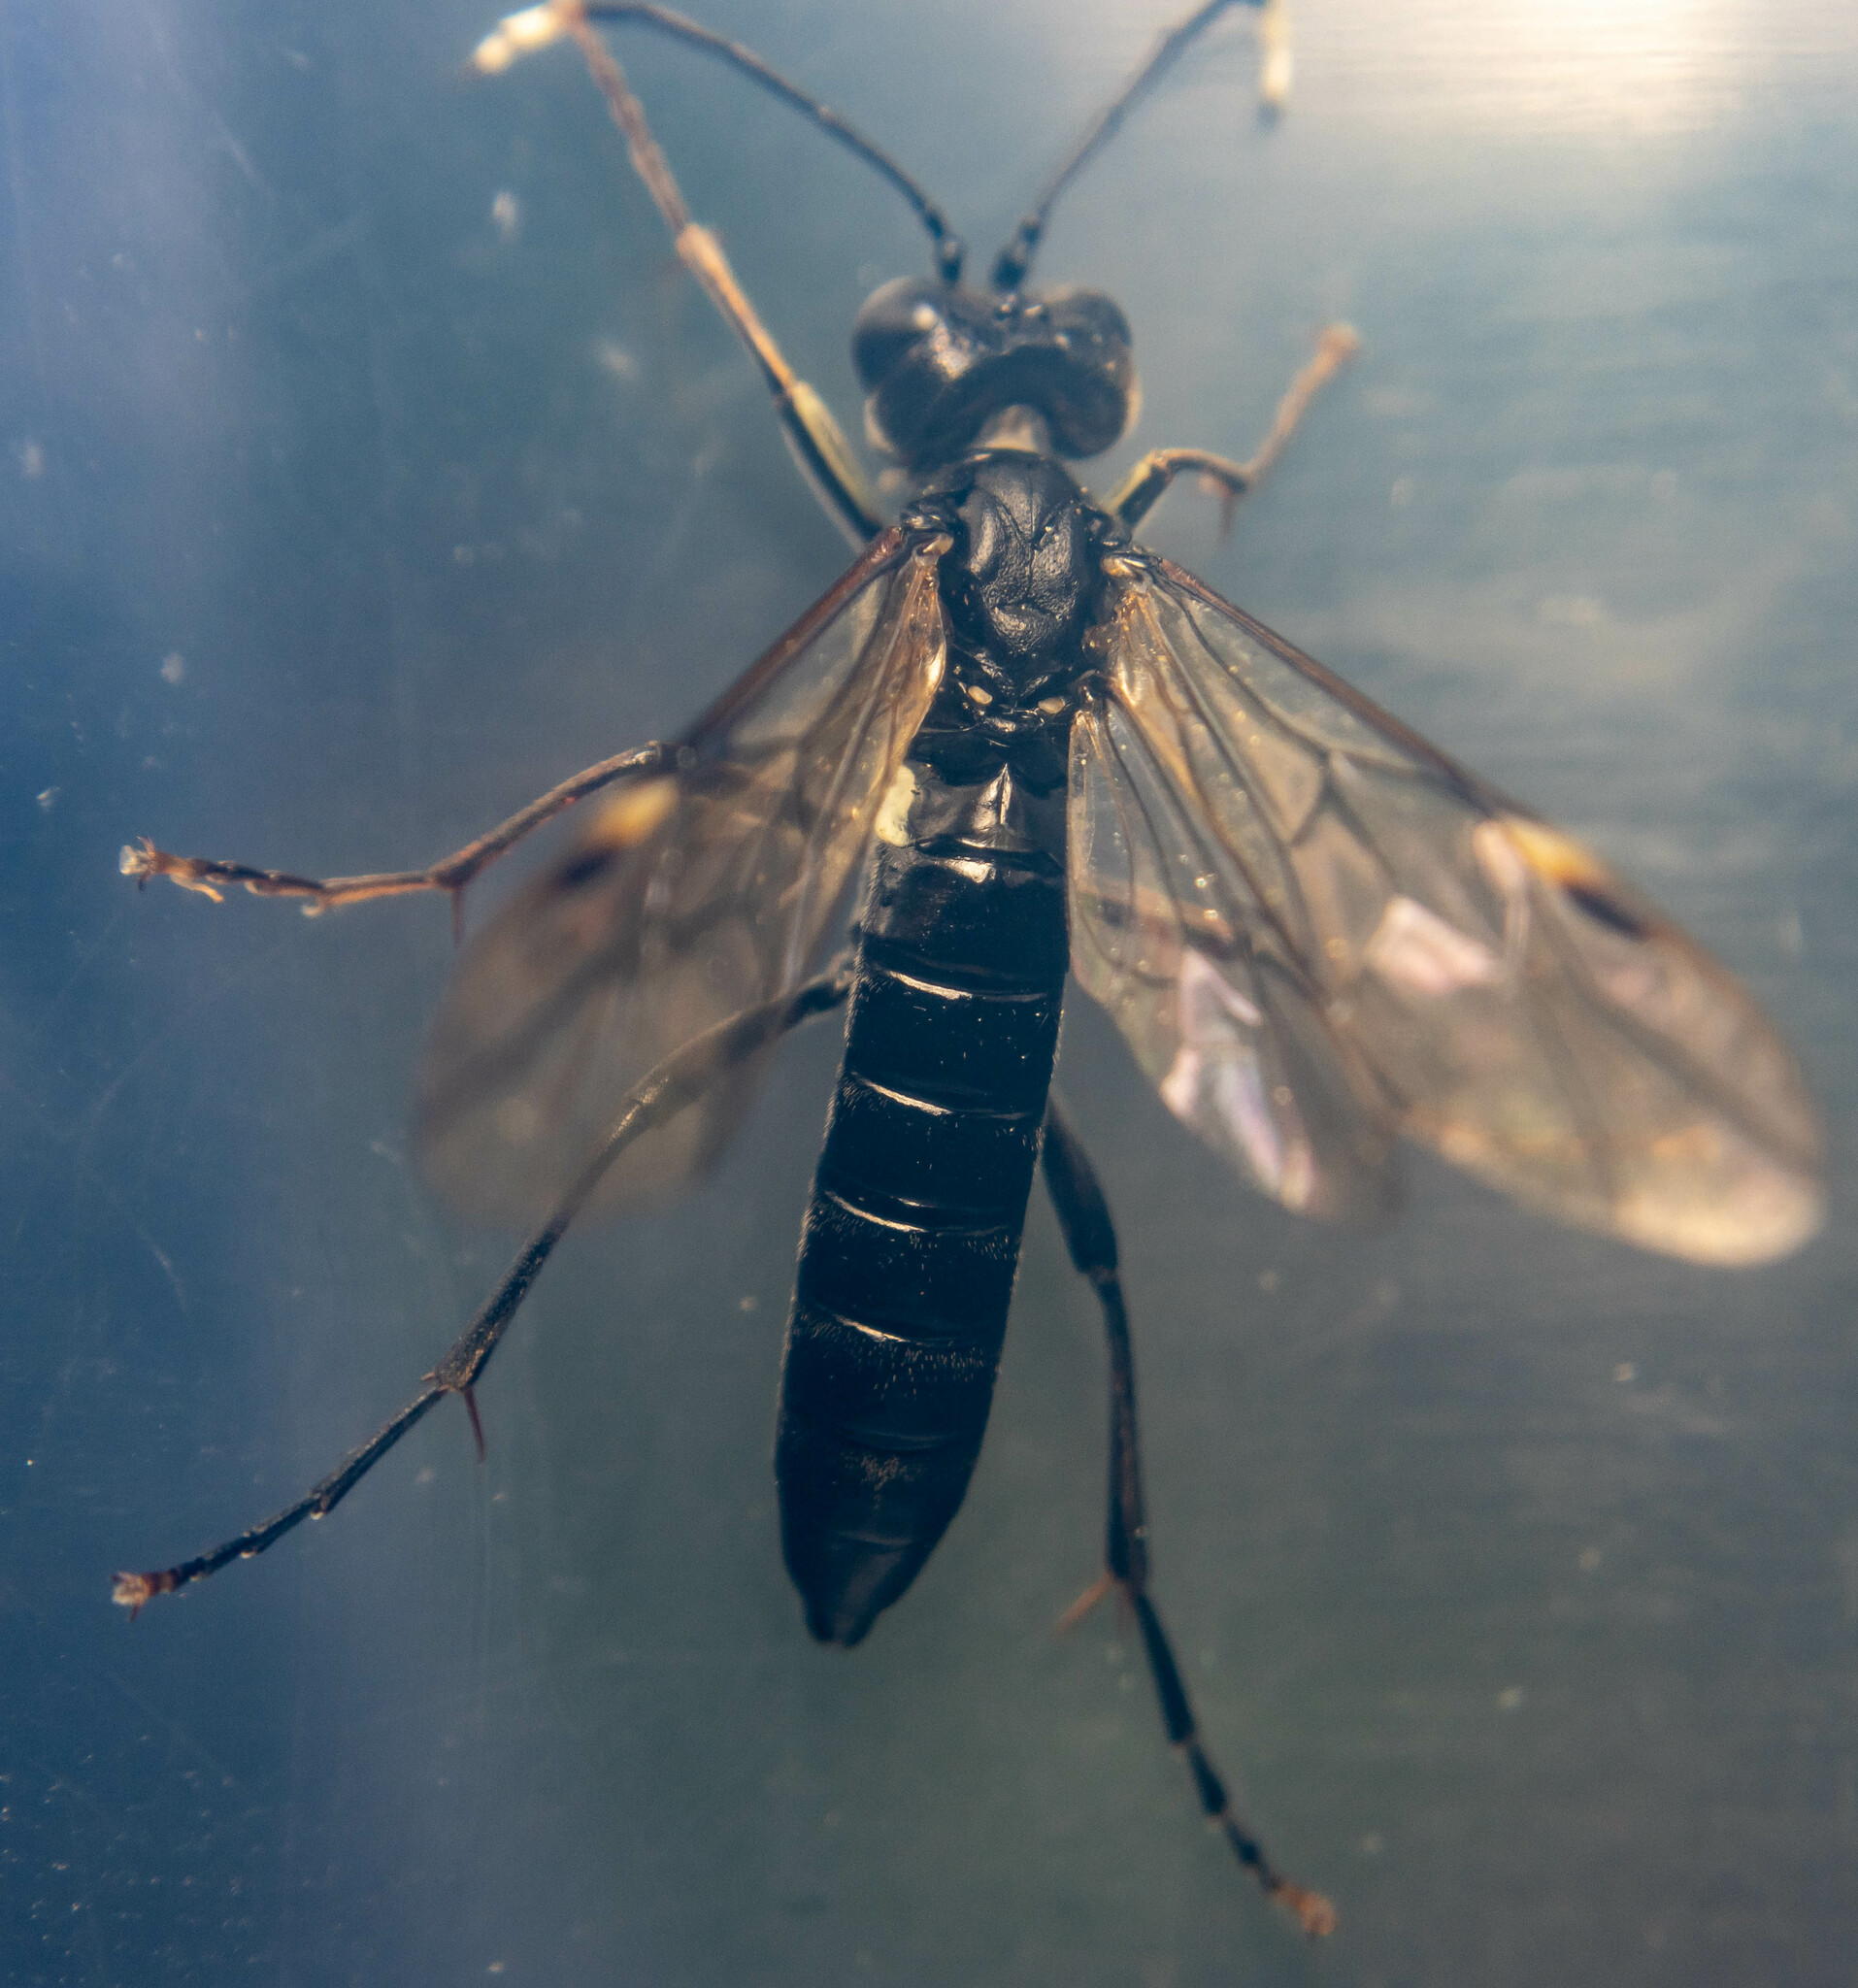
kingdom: Animalia
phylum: Arthropoda
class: Insecta
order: Hymenoptera
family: Tenthredinidae
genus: Tenthredo
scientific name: Tenthredo livida
